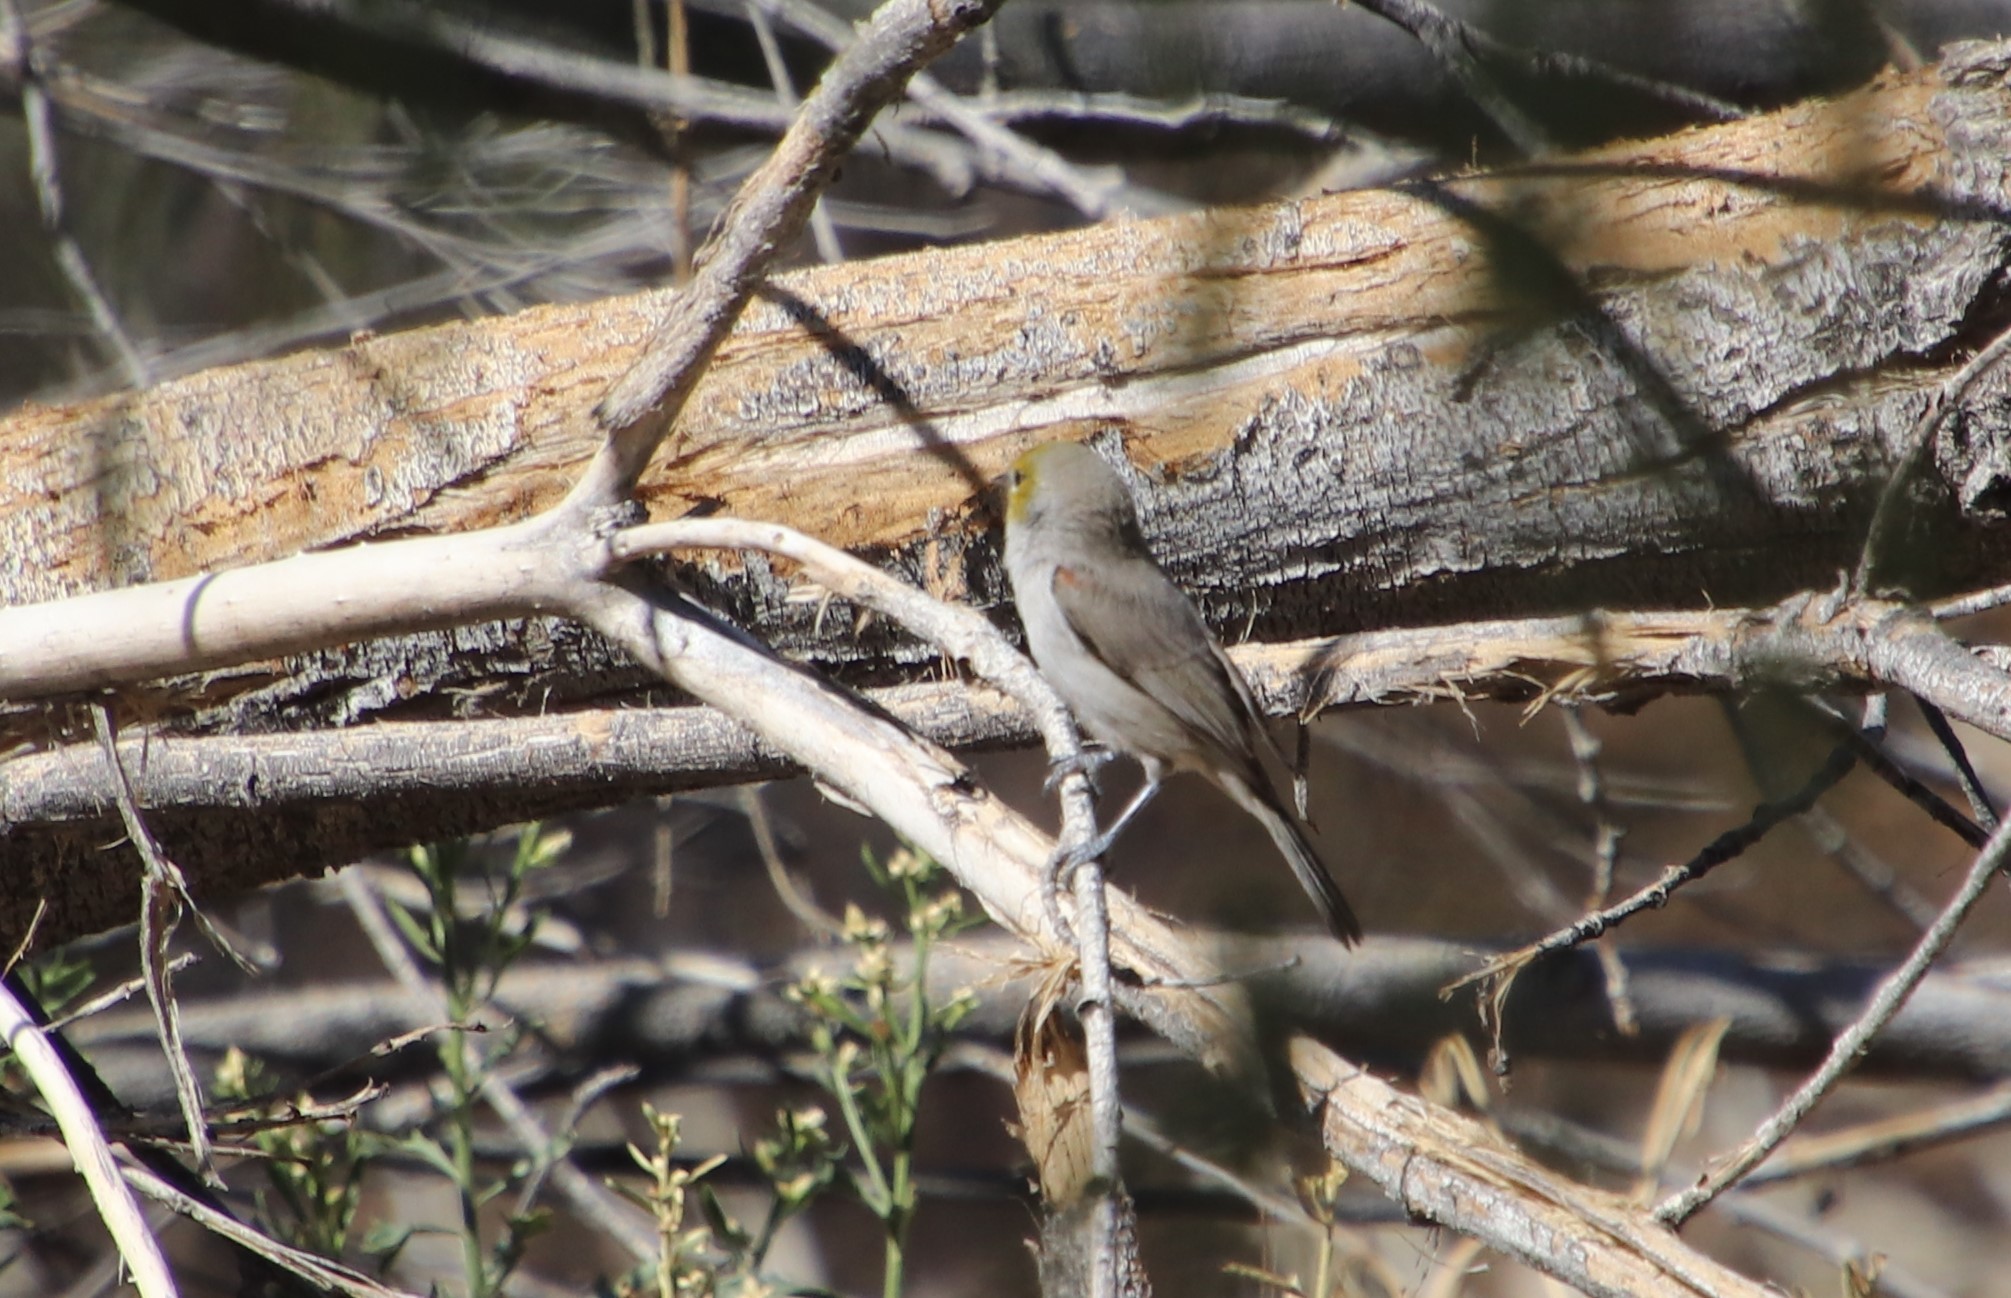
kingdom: Animalia
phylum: Chordata
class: Aves
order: Passeriformes
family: Remizidae
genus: Auriparus
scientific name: Auriparus flaviceps
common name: Verdin
